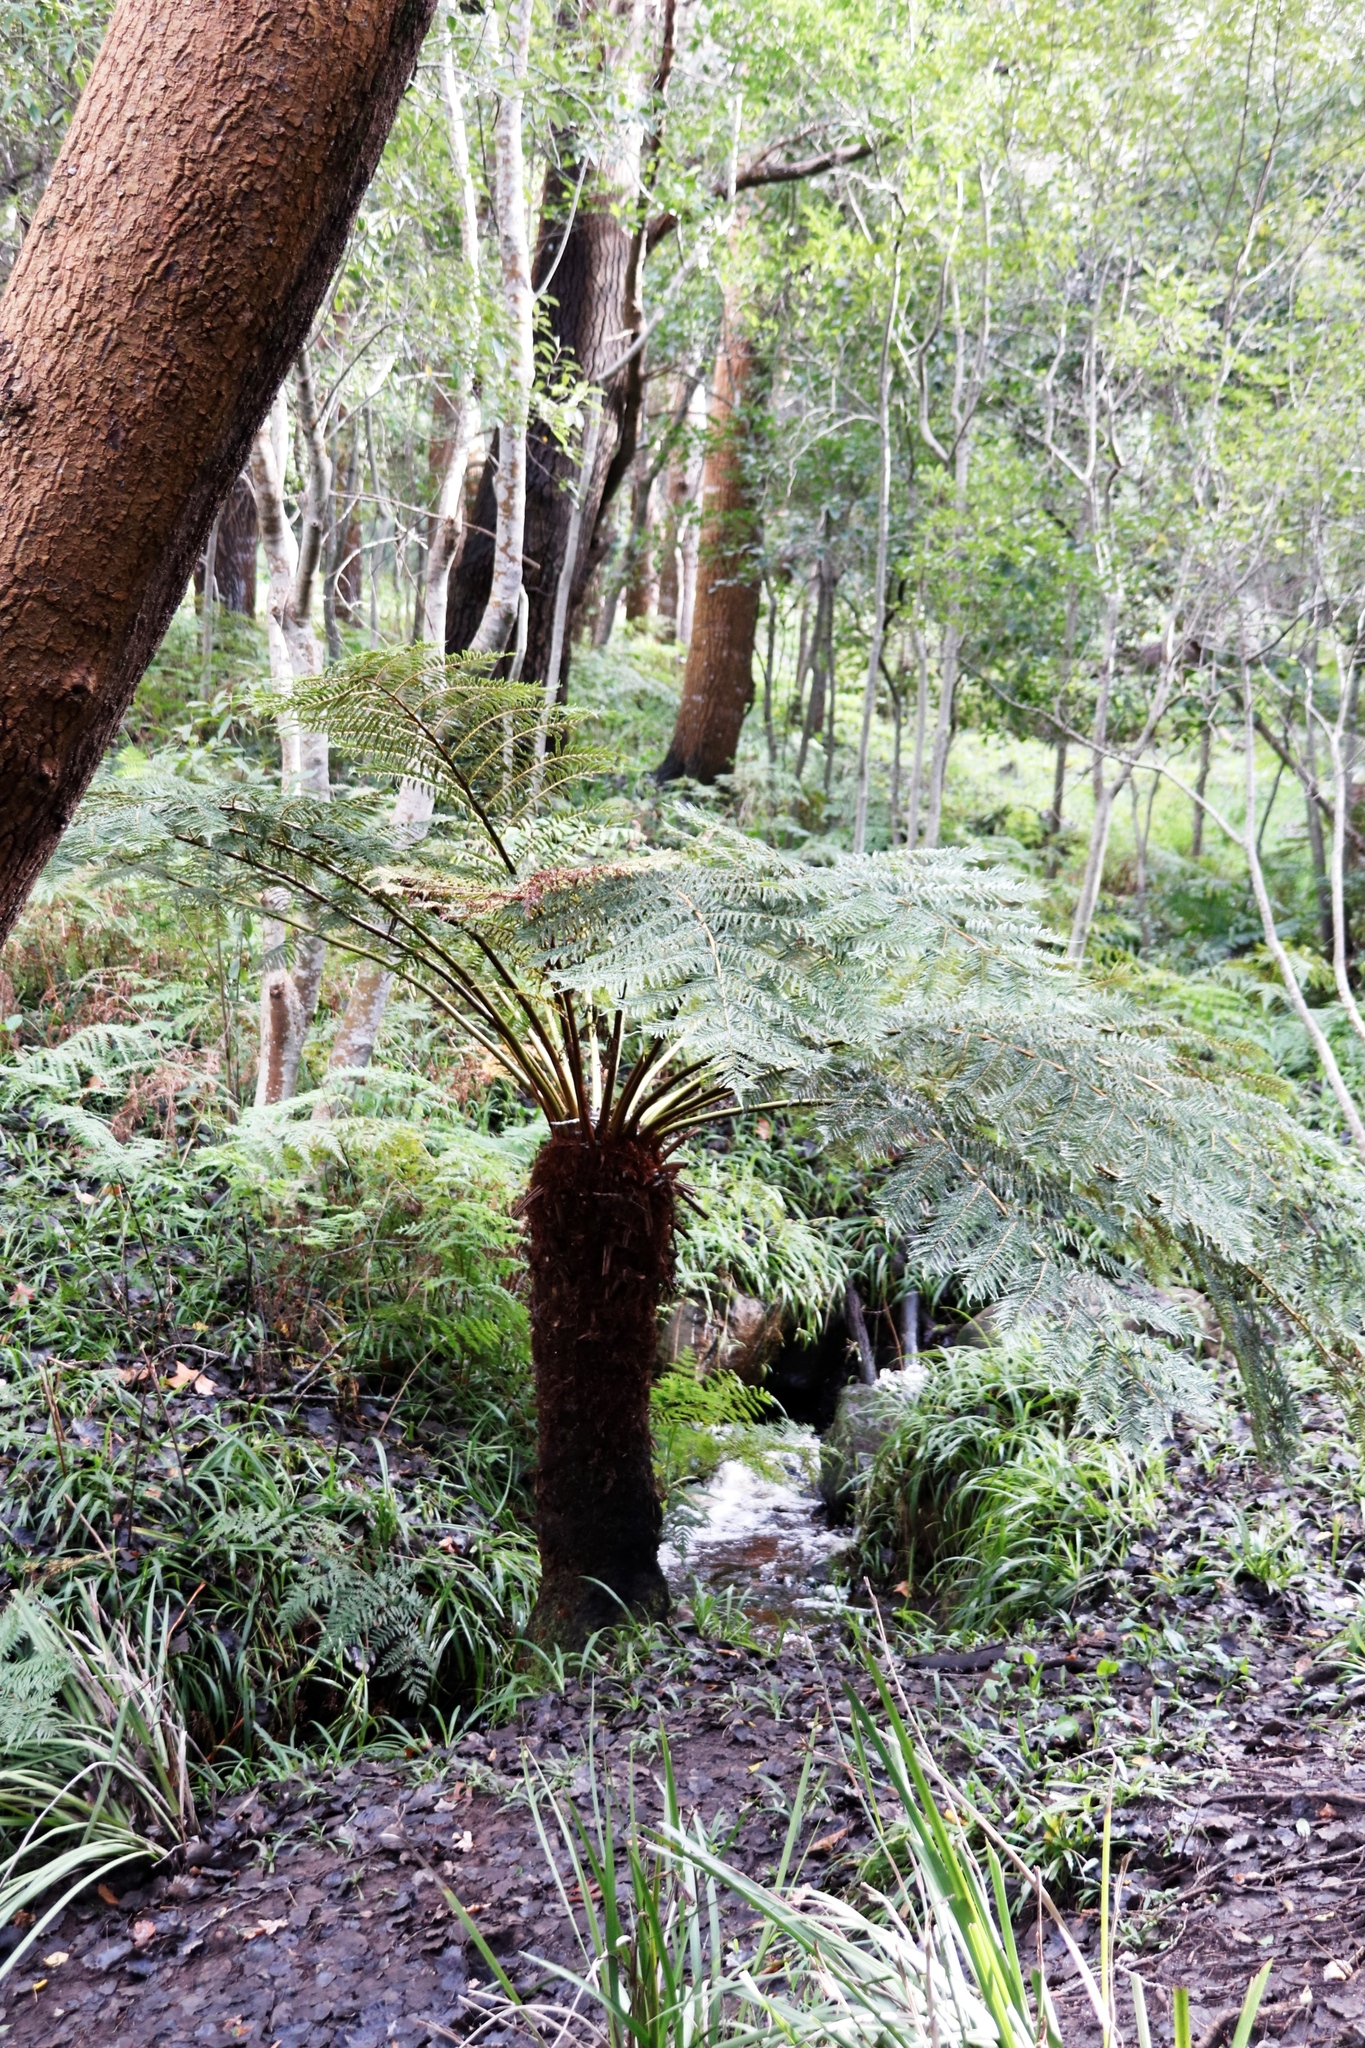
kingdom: Plantae
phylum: Tracheophyta
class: Polypodiopsida
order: Cyatheales
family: Cyatheaceae
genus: Alsophila
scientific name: Alsophila dregei
